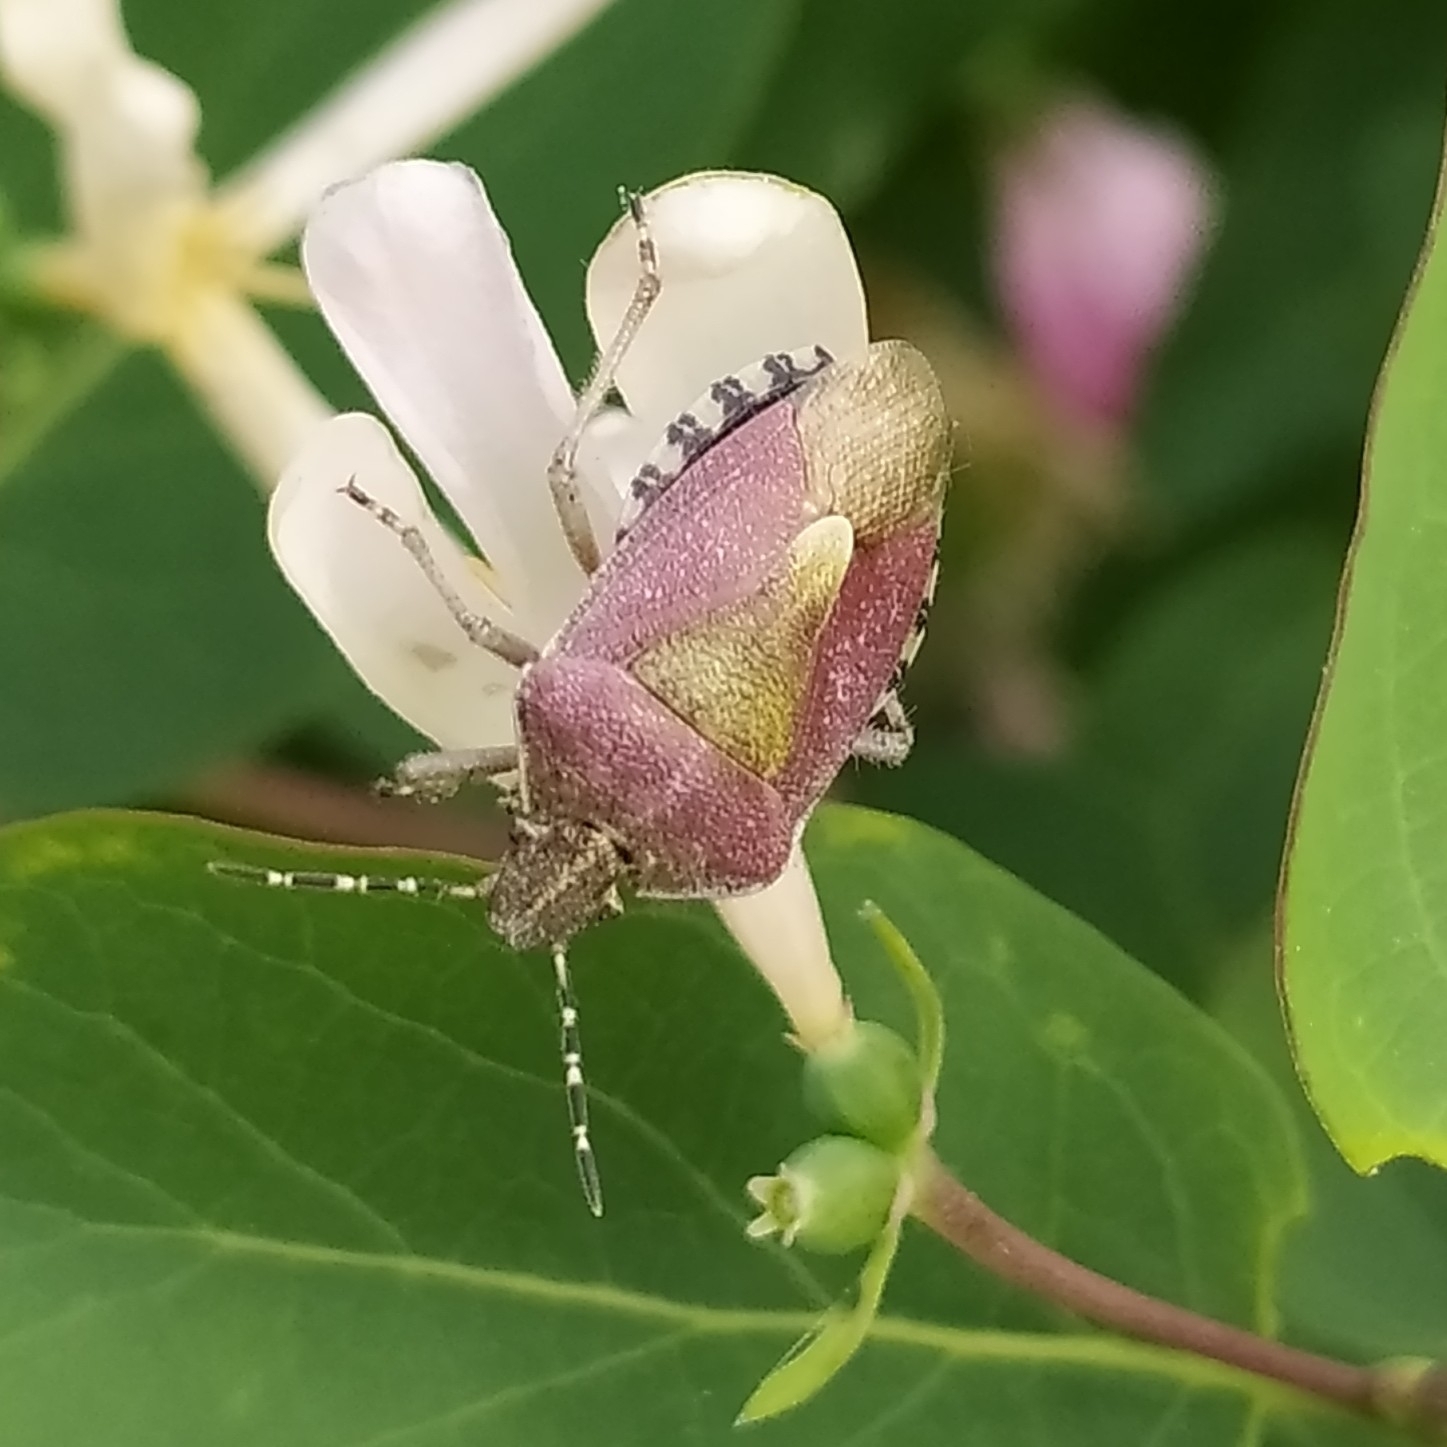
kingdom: Animalia
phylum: Arthropoda
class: Insecta
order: Hemiptera
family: Pentatomidae
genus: Dolycoris
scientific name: Dolycoris baccarum
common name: Sloe bug
